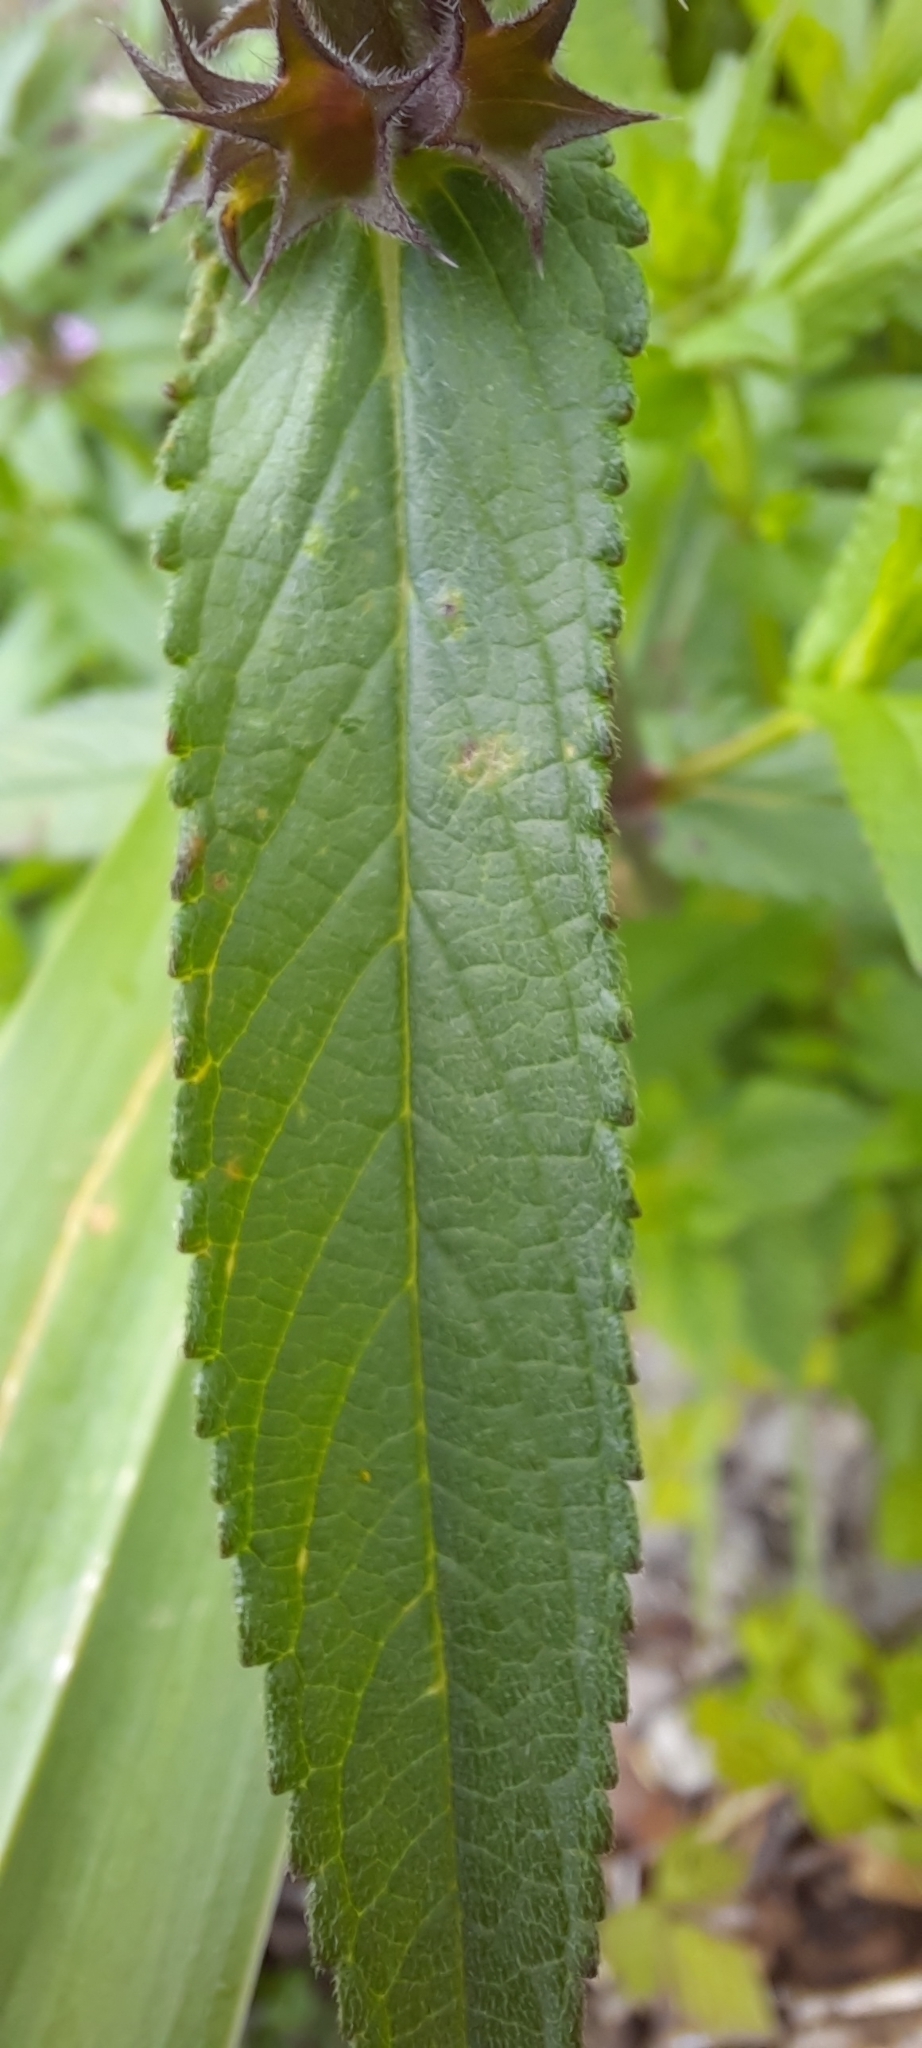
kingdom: Plantae
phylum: Tracheophyta
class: Magnoliopsida
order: Lamiales
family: Lamiaceae
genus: Stachys
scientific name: Stachys palustris
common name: Marsh woundwort
